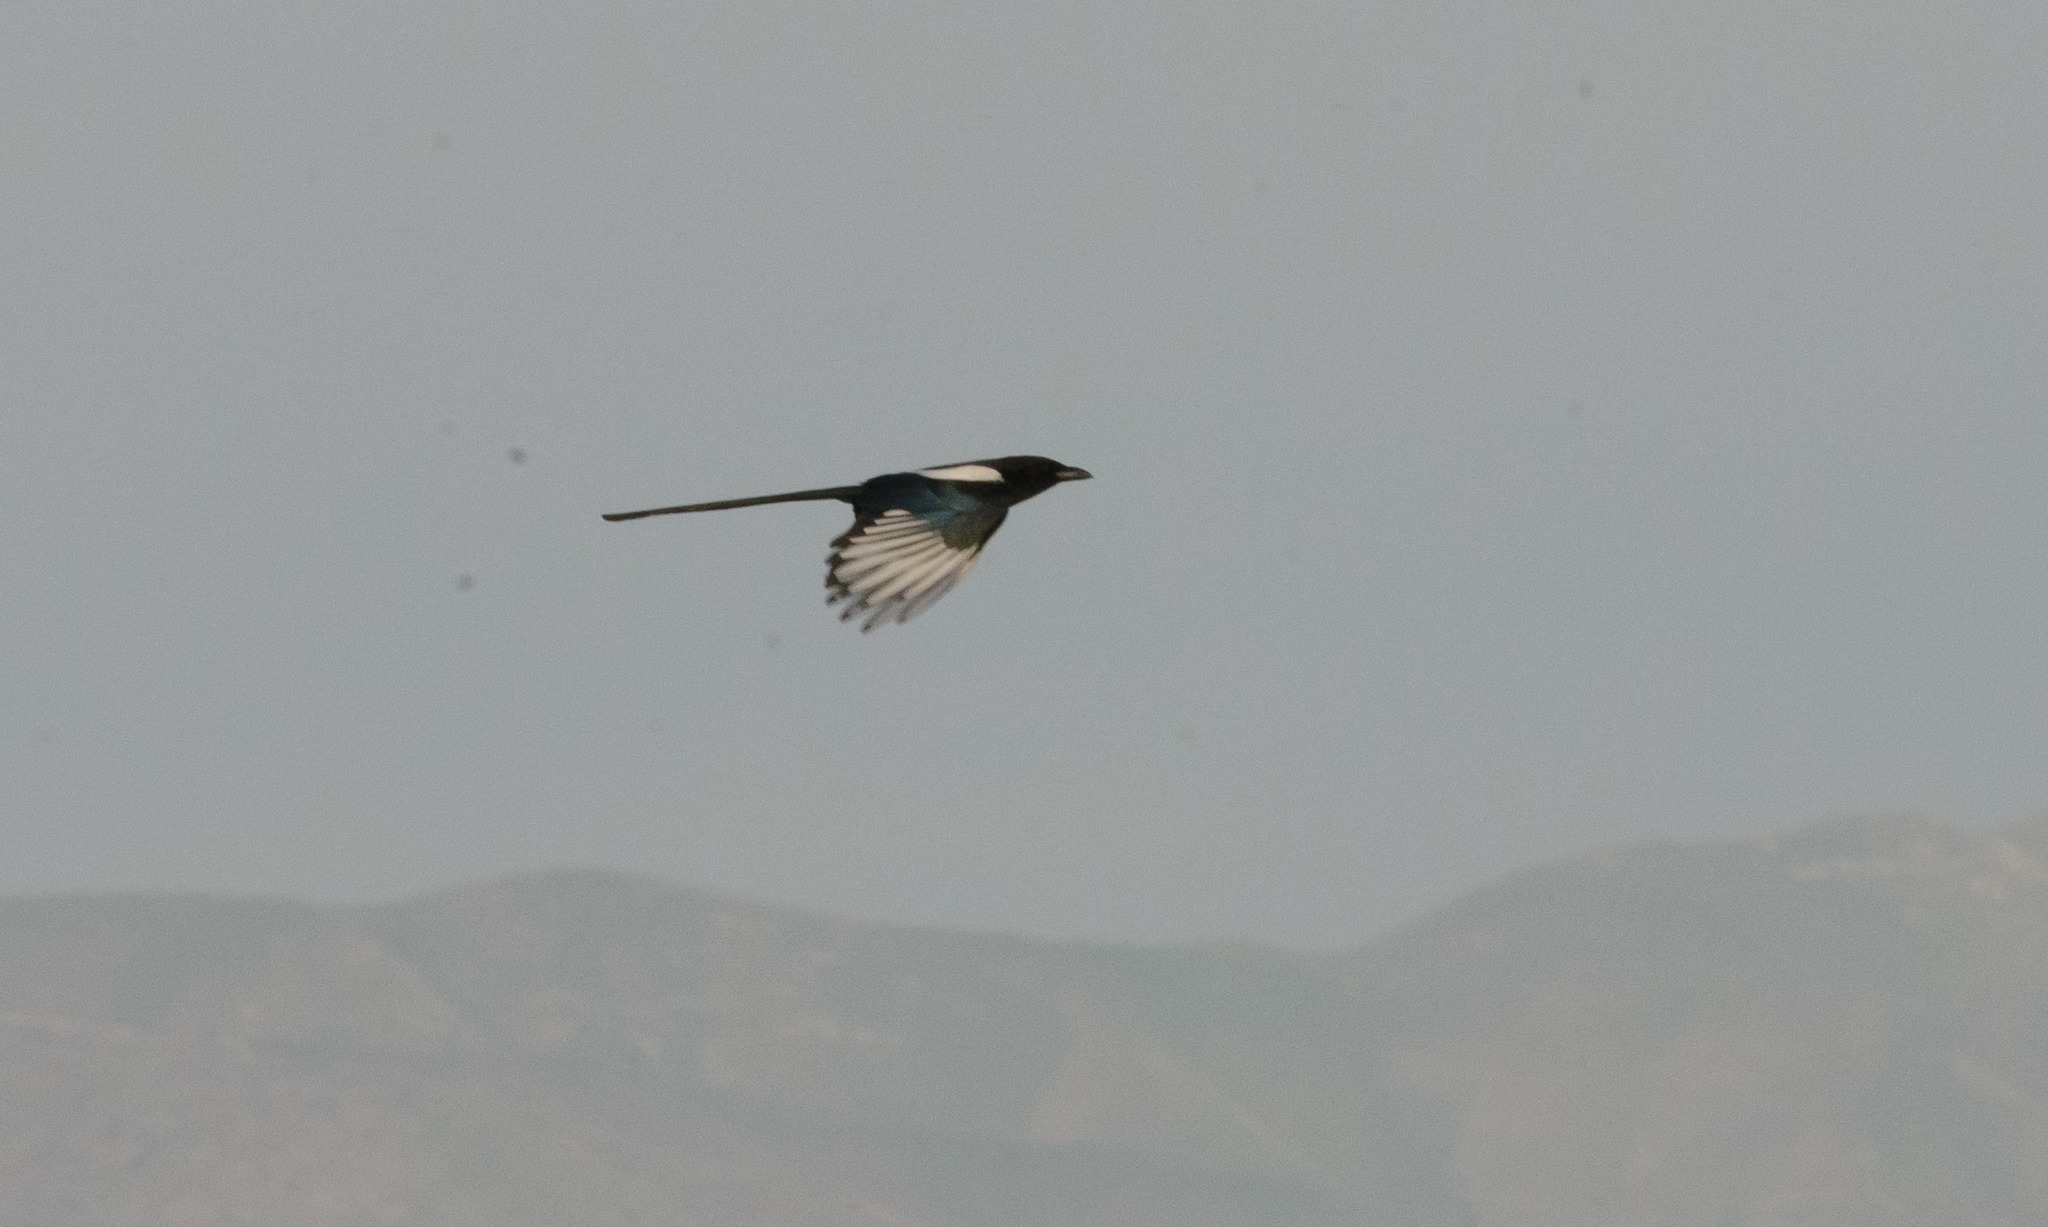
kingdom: Animalia
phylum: Chordata
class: Aves
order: Passeriformes
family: Corvidae
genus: Pica
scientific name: Pica hudsonia
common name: Black-billed magpie
